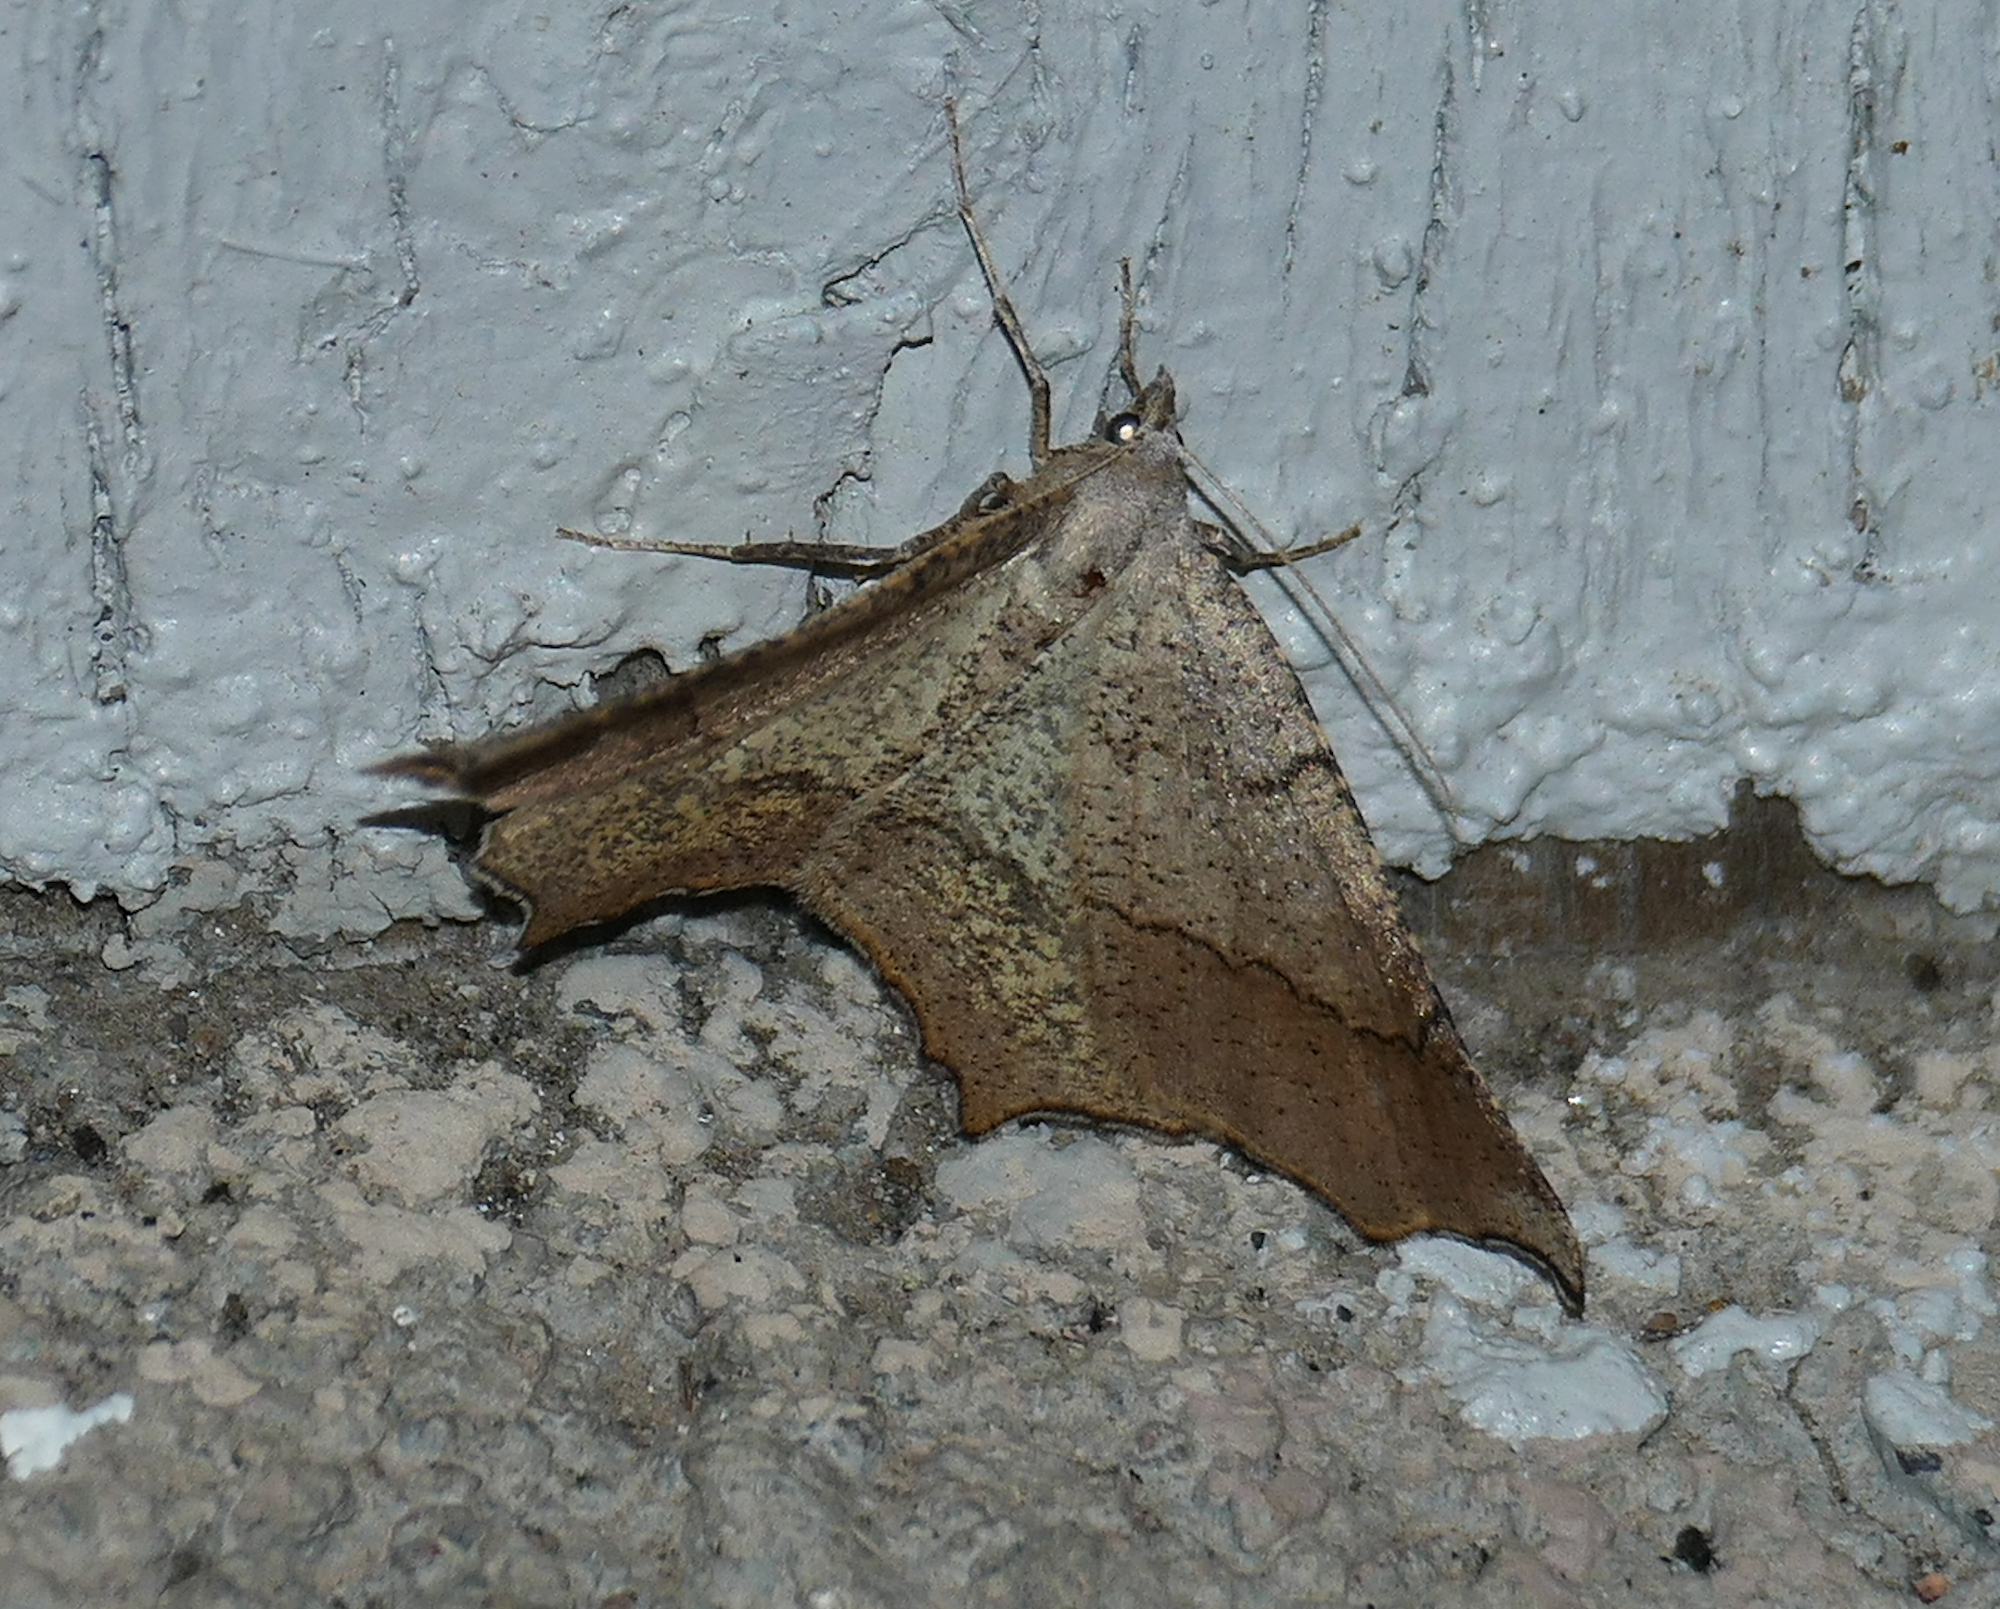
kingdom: Animalia
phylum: Arthropoda
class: Insecta
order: Lepidoptera
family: Geometridae
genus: Eriplatymetra
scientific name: Eriplatymetra grotearia
